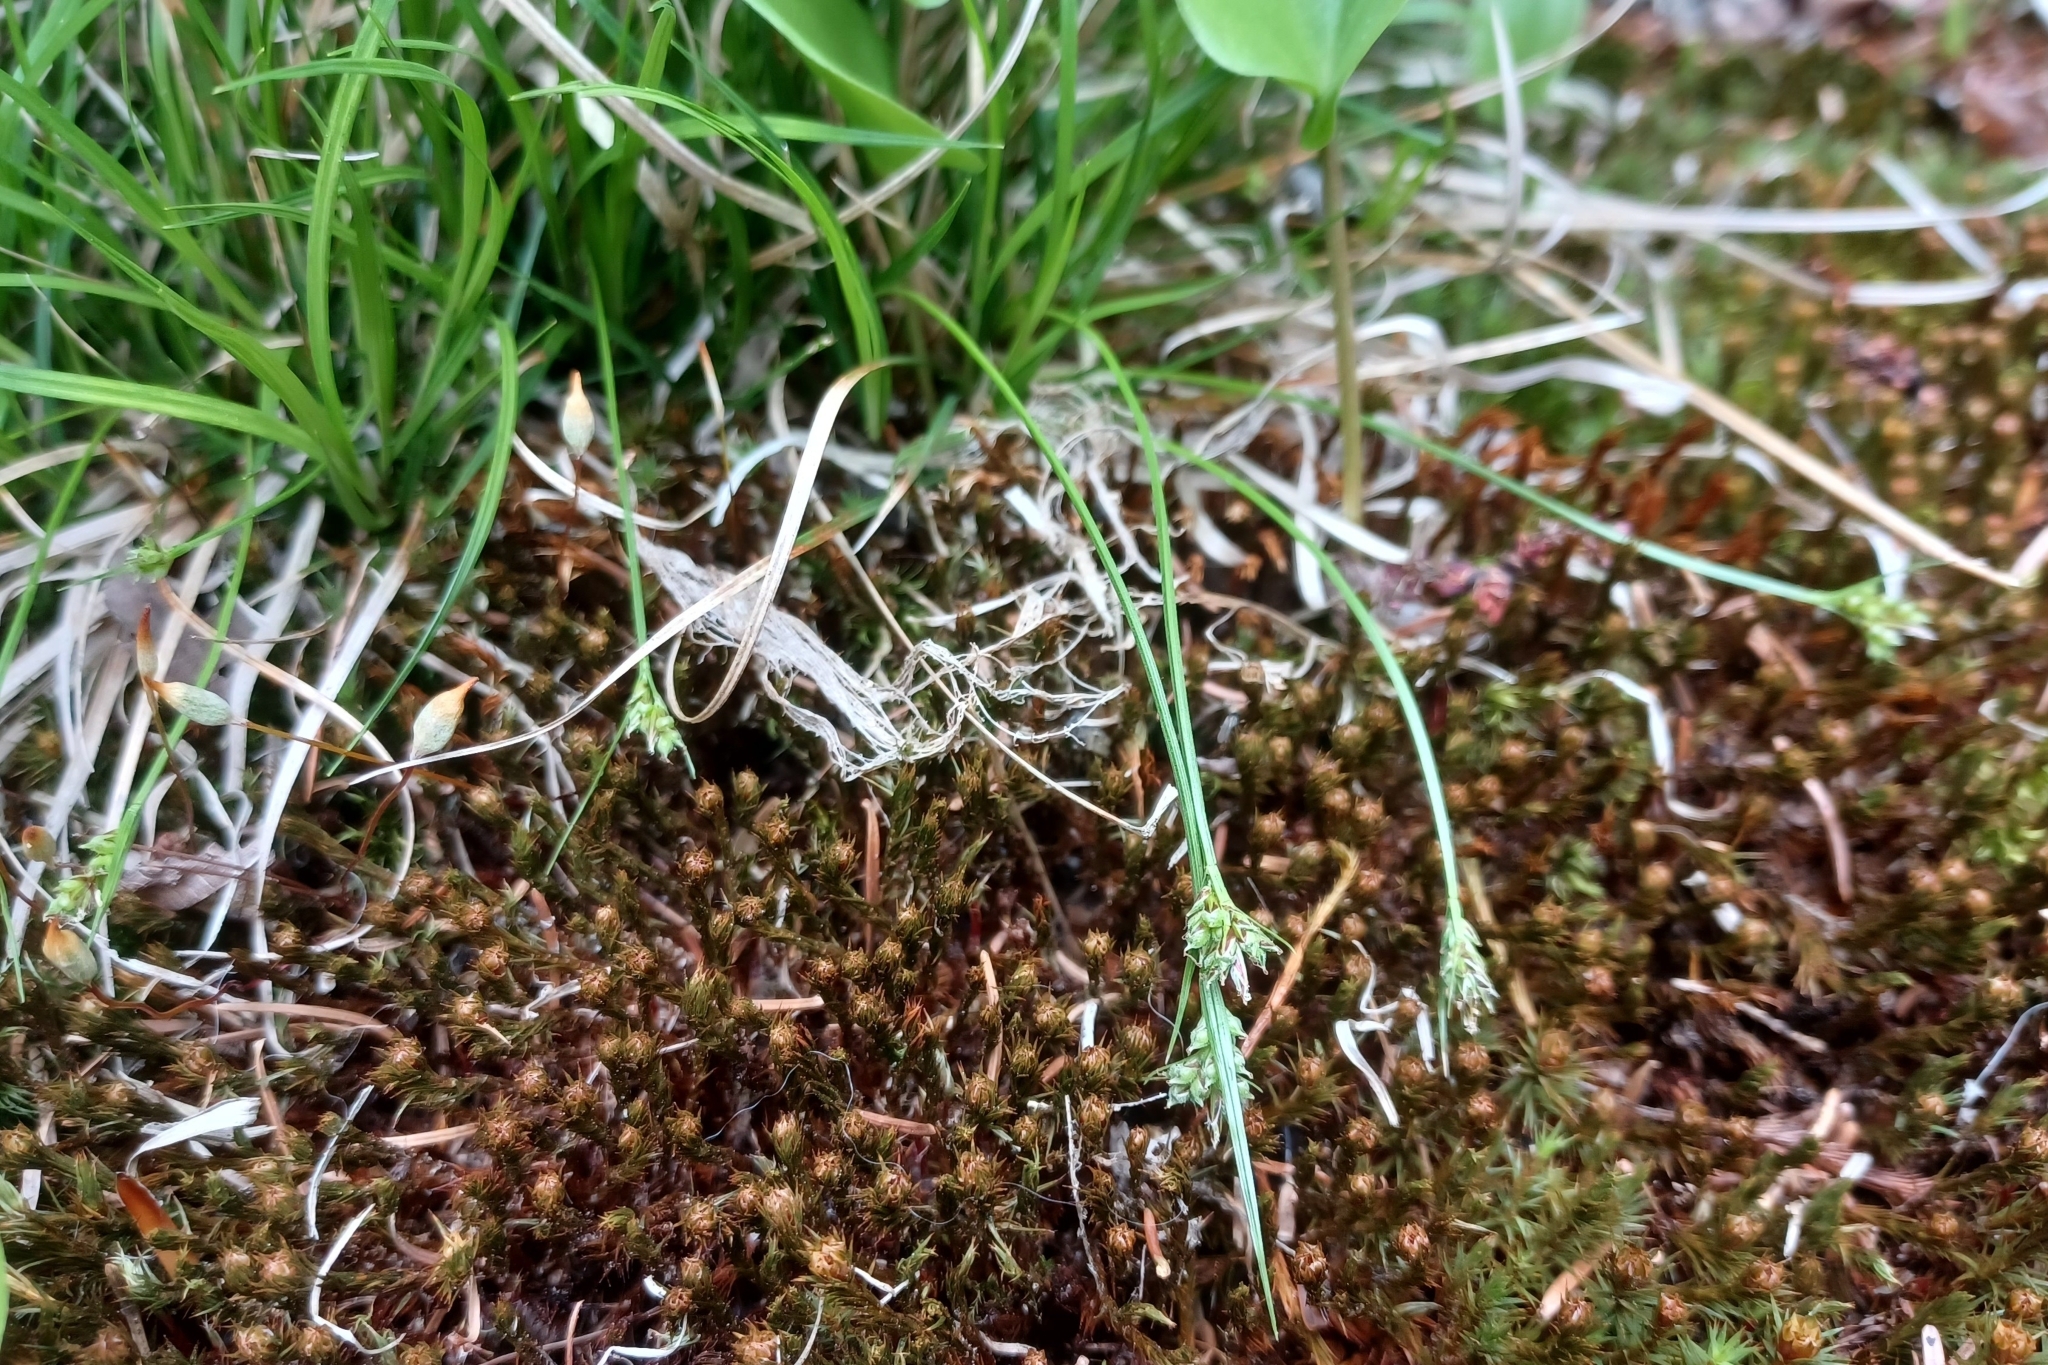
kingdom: Plantae
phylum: Tracheophyta
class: Liliopsida
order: Poales
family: Cyperaceae
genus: Carex
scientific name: Carex deflexa
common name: Bent northern sedge
